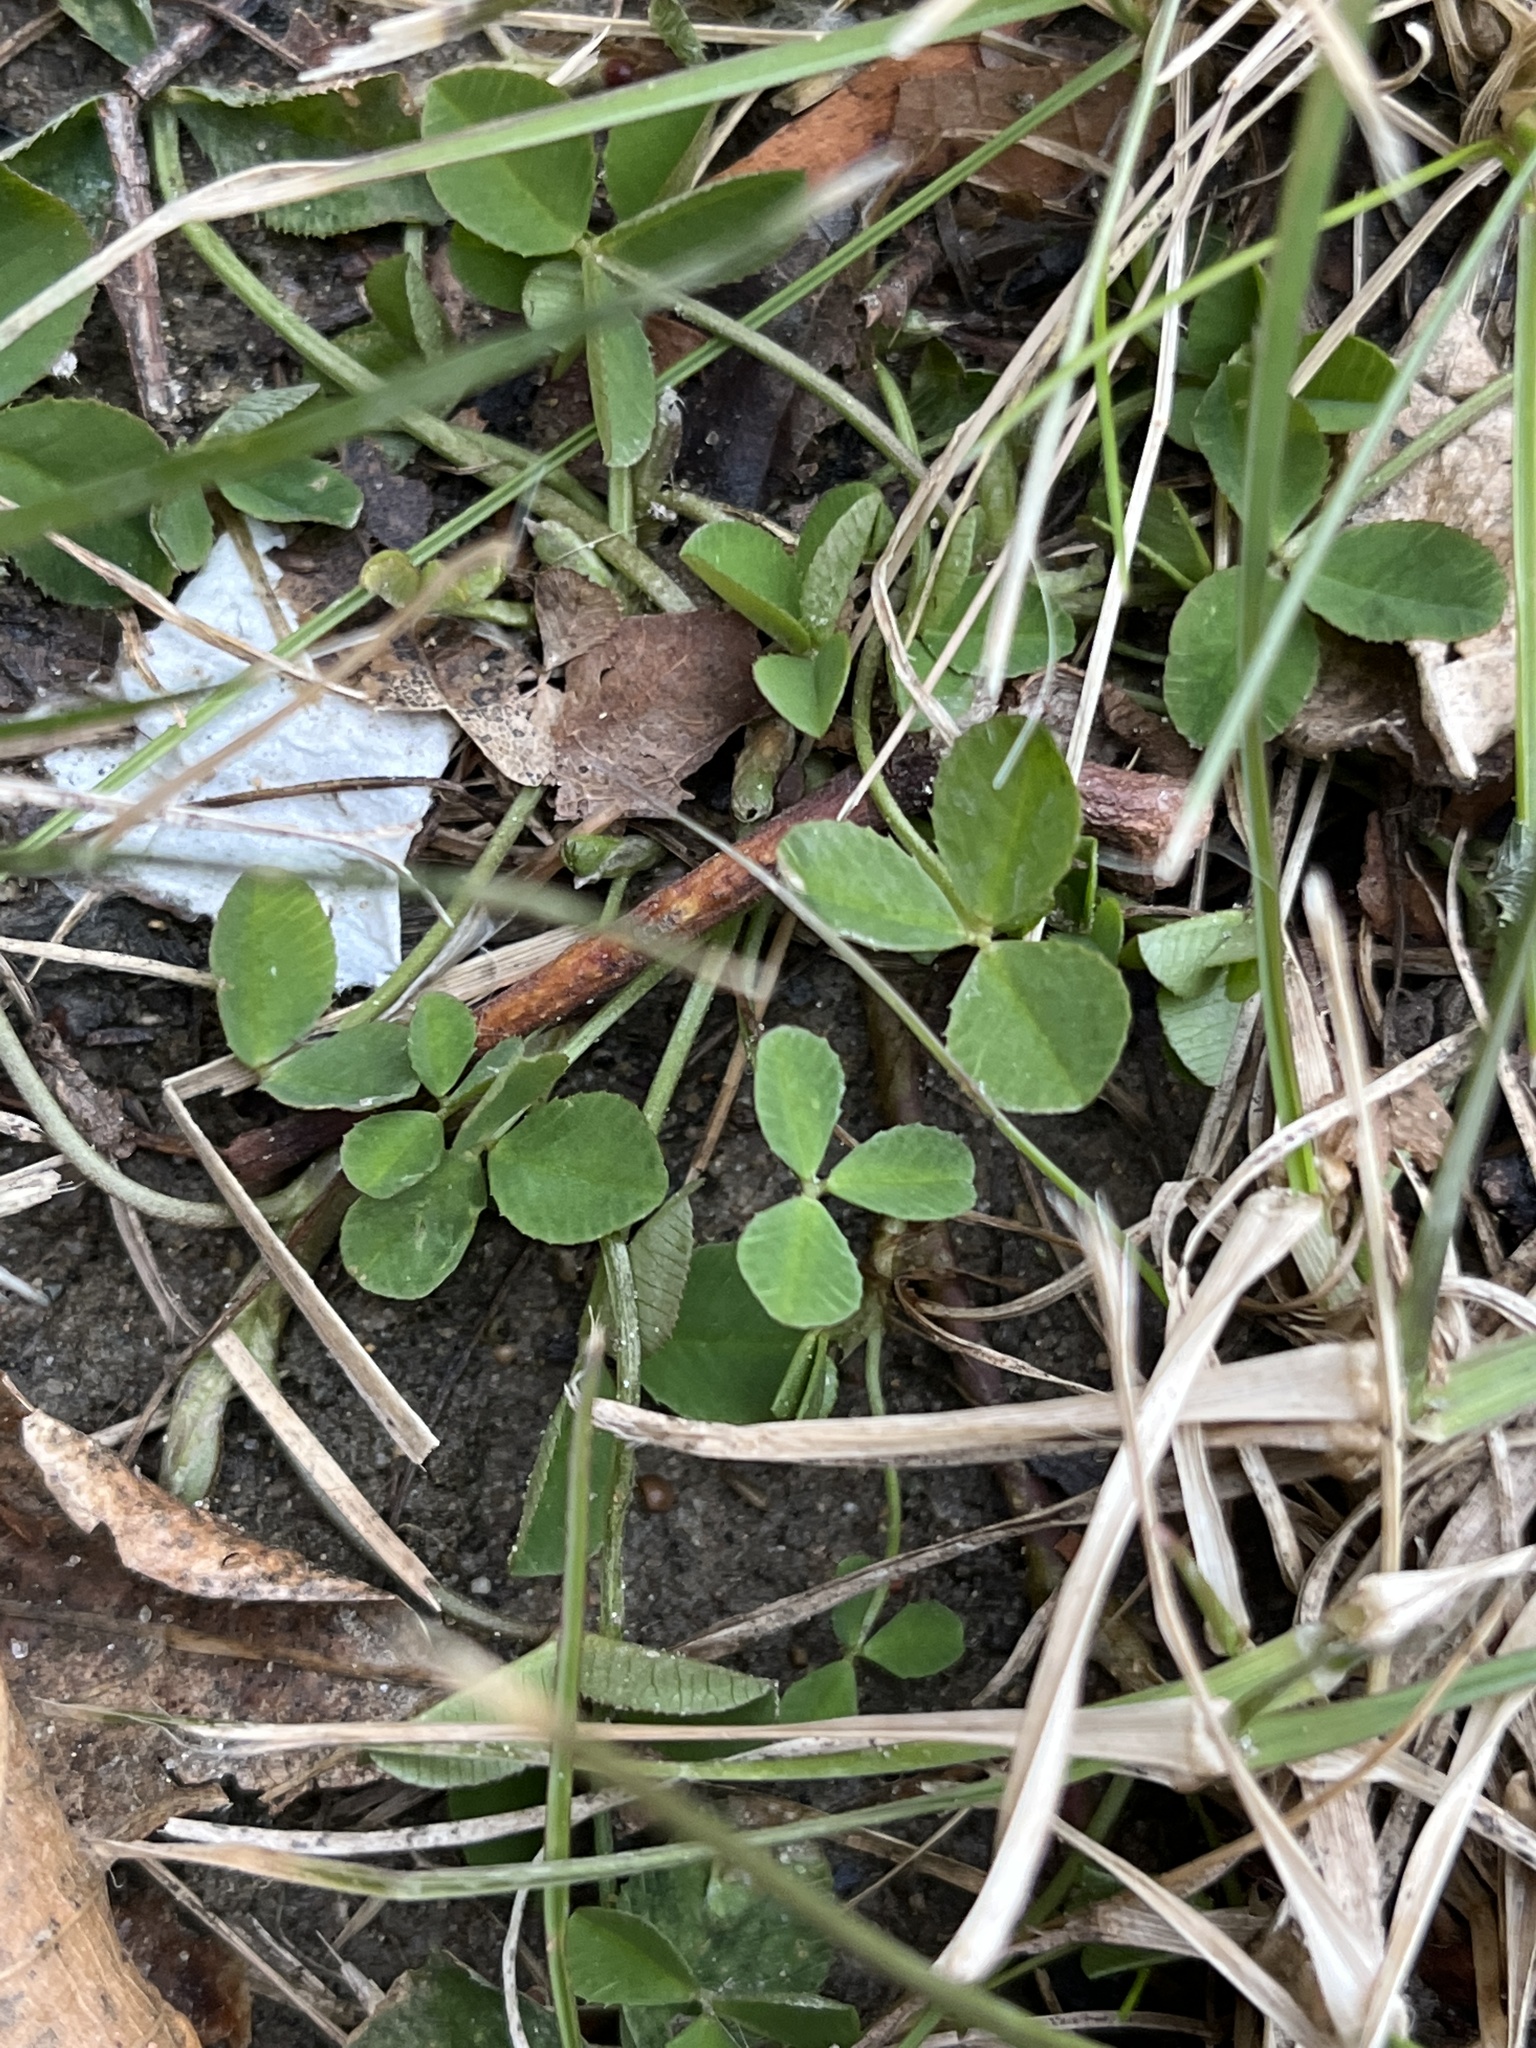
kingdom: Plantae
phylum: Tracheophyta
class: Magnoliopsida
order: Fabales
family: Fabaceae
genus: Trifolium
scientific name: Trifolium
